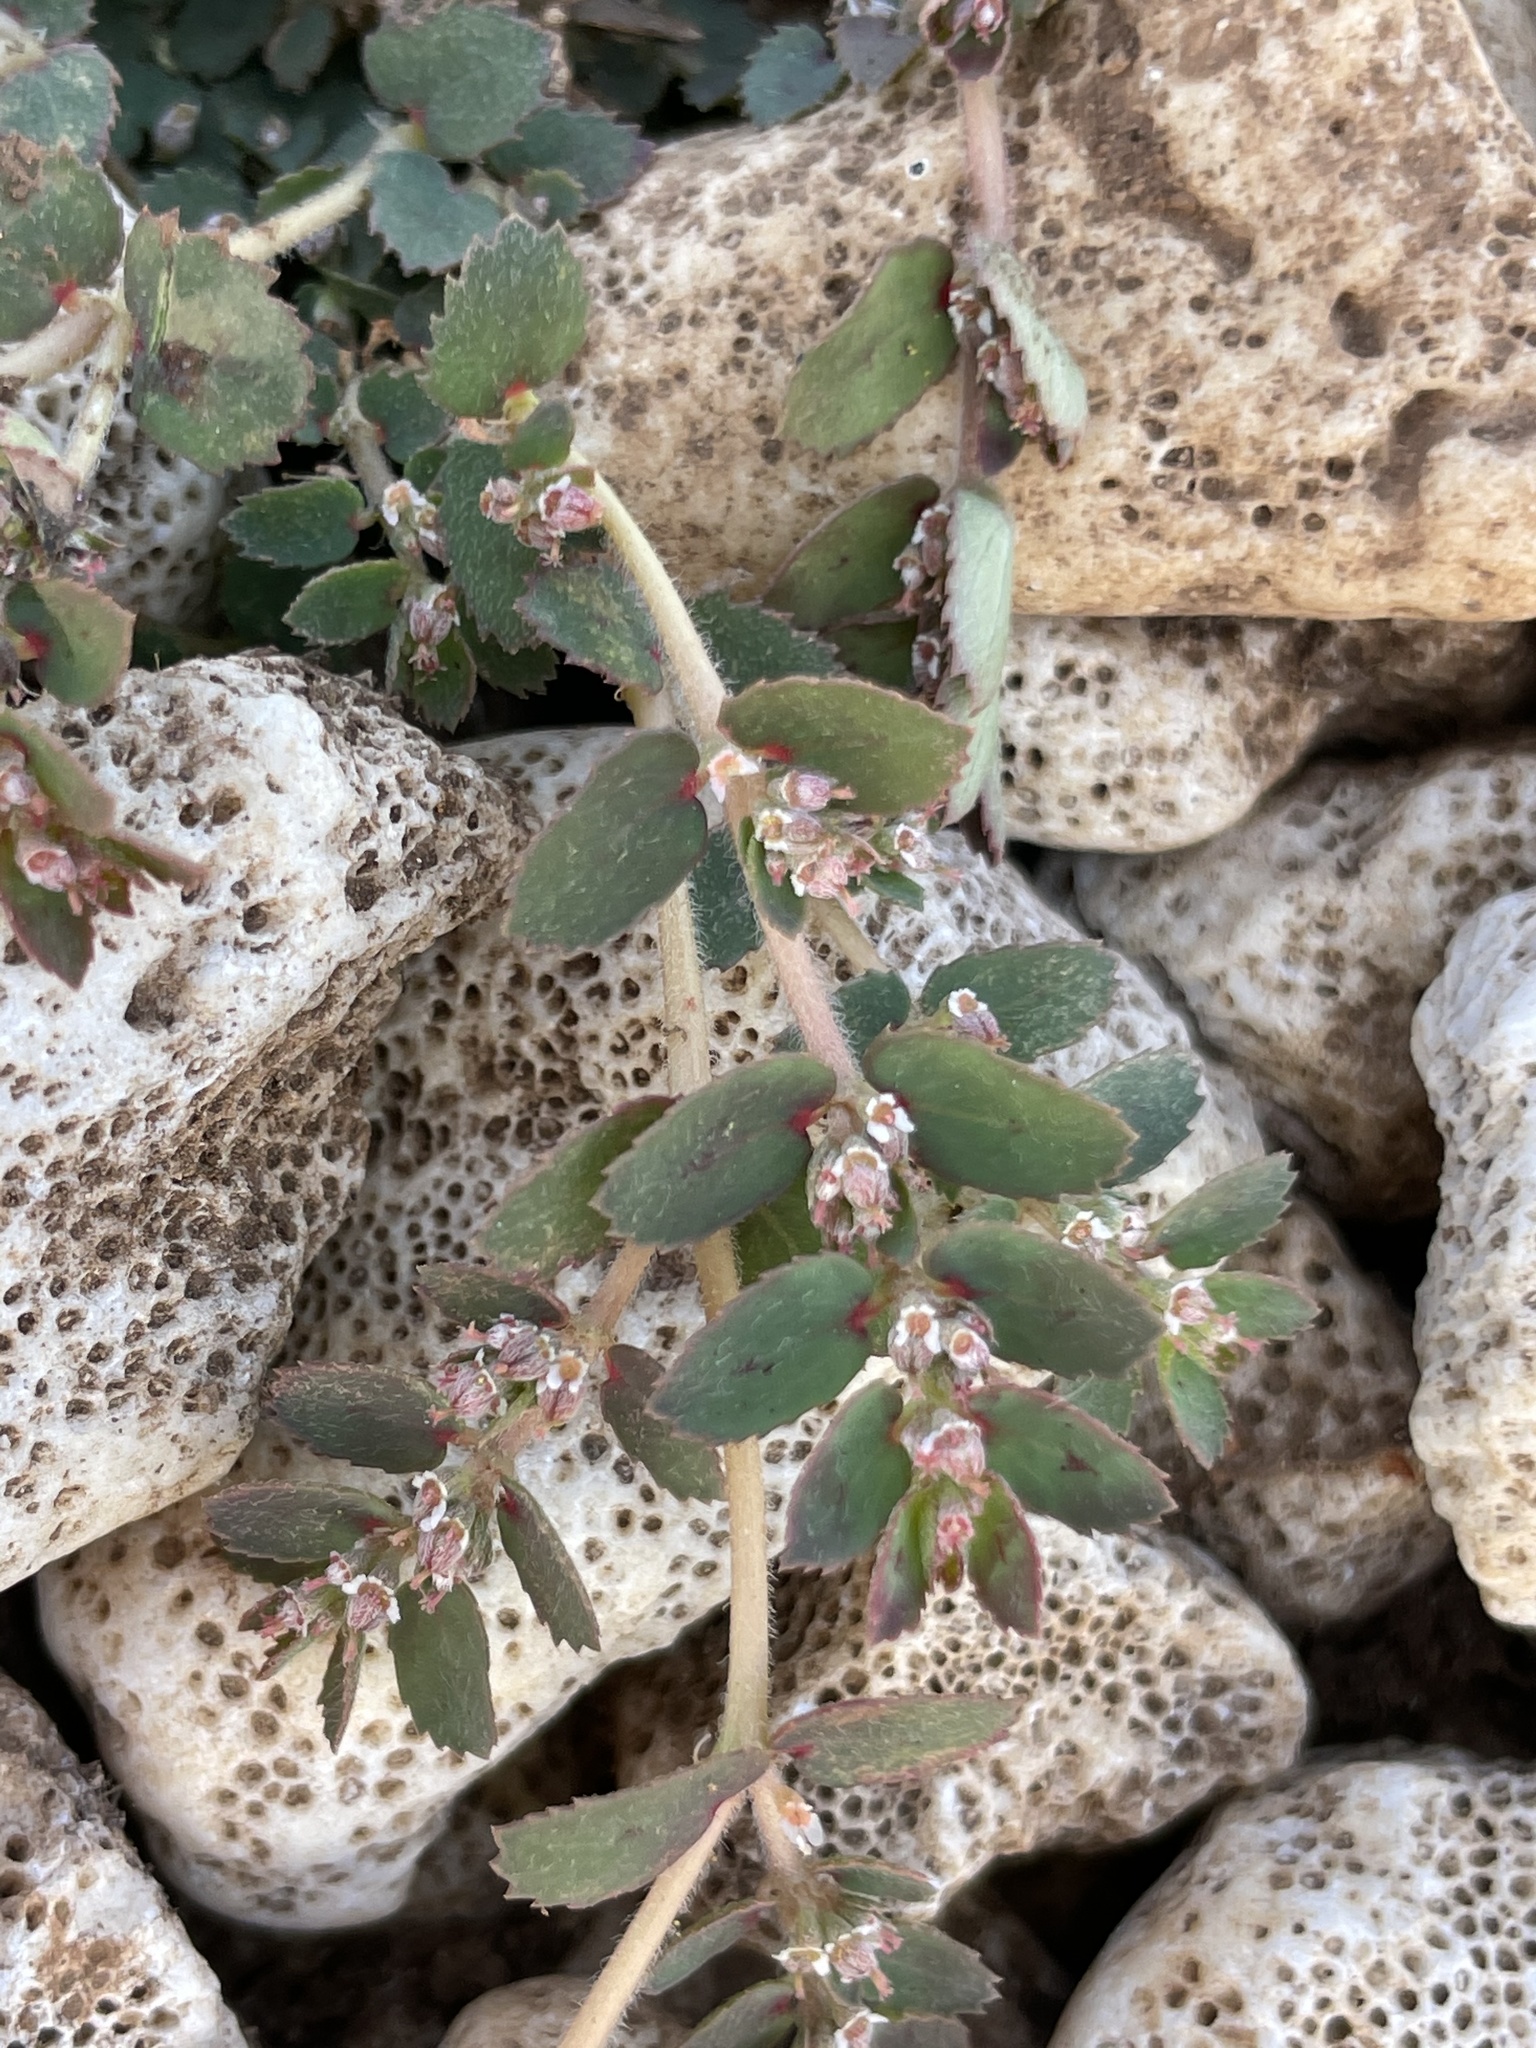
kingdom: Plantae
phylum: Tracheophyta
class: Magnoliopsida
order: Malpighiales
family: Euphorbiaceae
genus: Euphorbia
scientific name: Euphorbia dioeca
